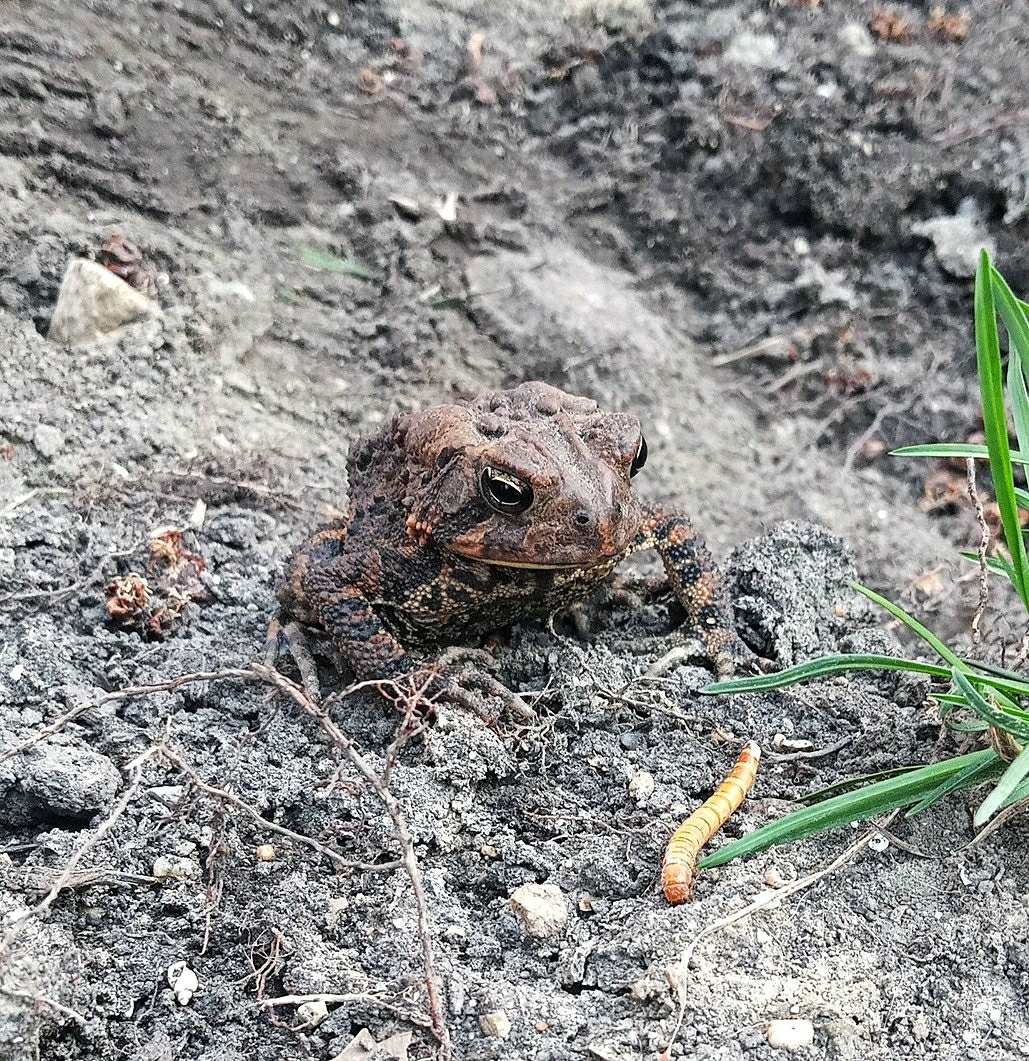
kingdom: Animalia
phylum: Chordata
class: Amphibia
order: Anura
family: Bufonidae
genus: Anaxyrus
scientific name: Anaxyrus americanus
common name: American toad
